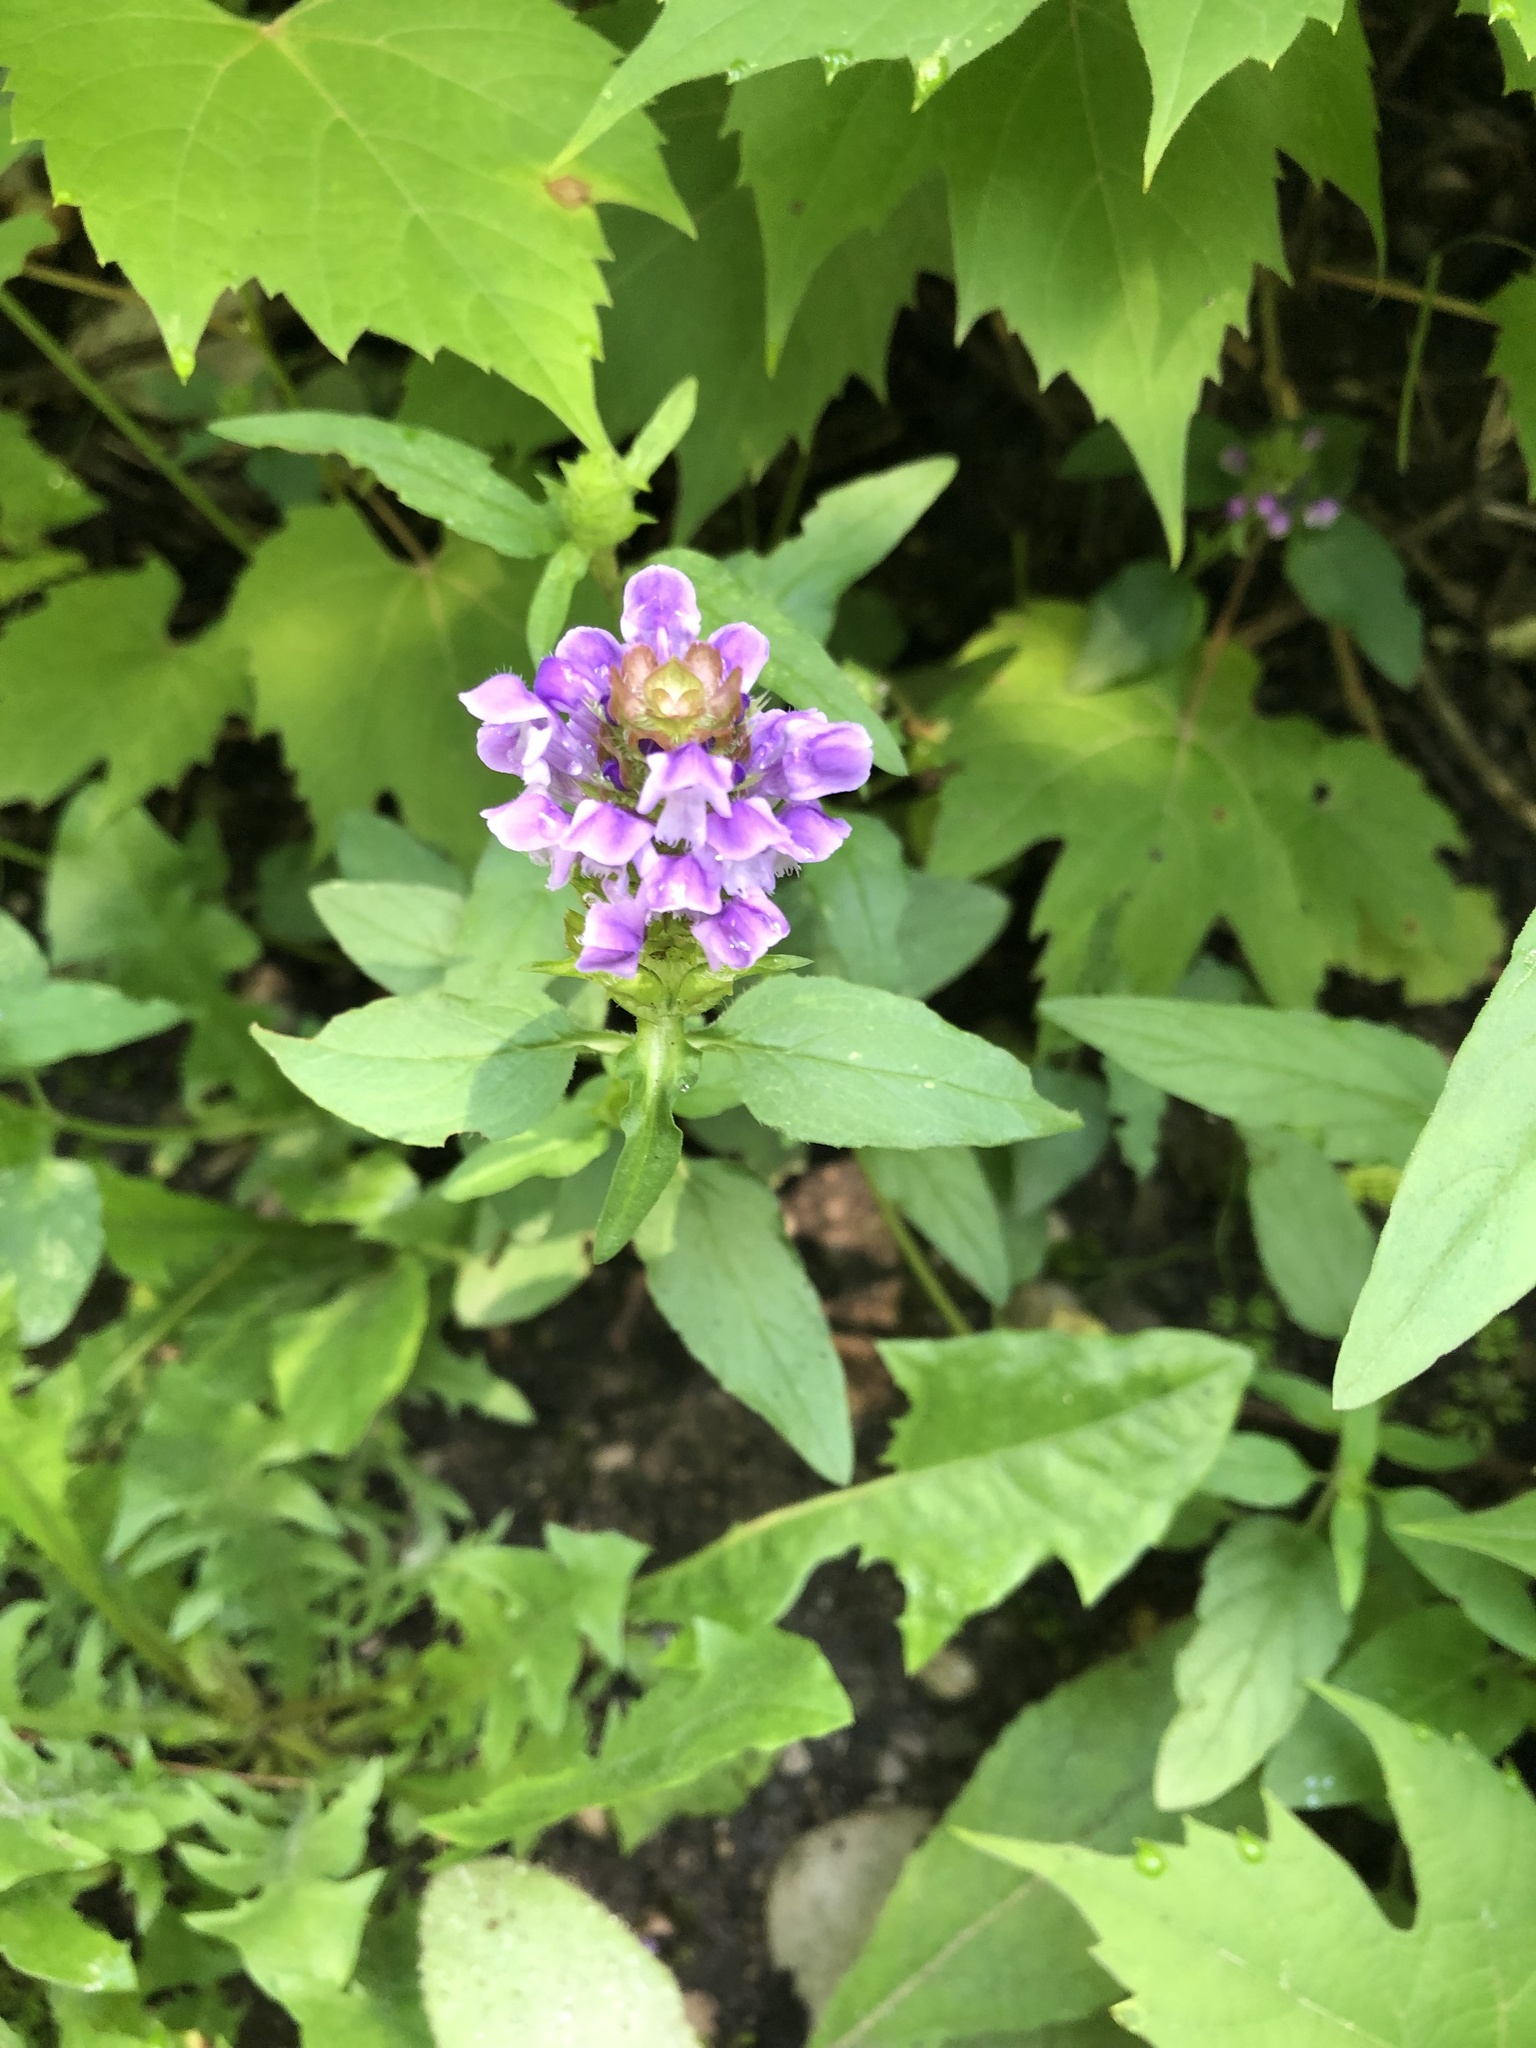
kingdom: Plantae
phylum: Tracheophyta
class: Magnoliopsida
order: Lamiales
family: Lamiaceae
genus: Prunella
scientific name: Prunella vulgaris
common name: Heal-all
